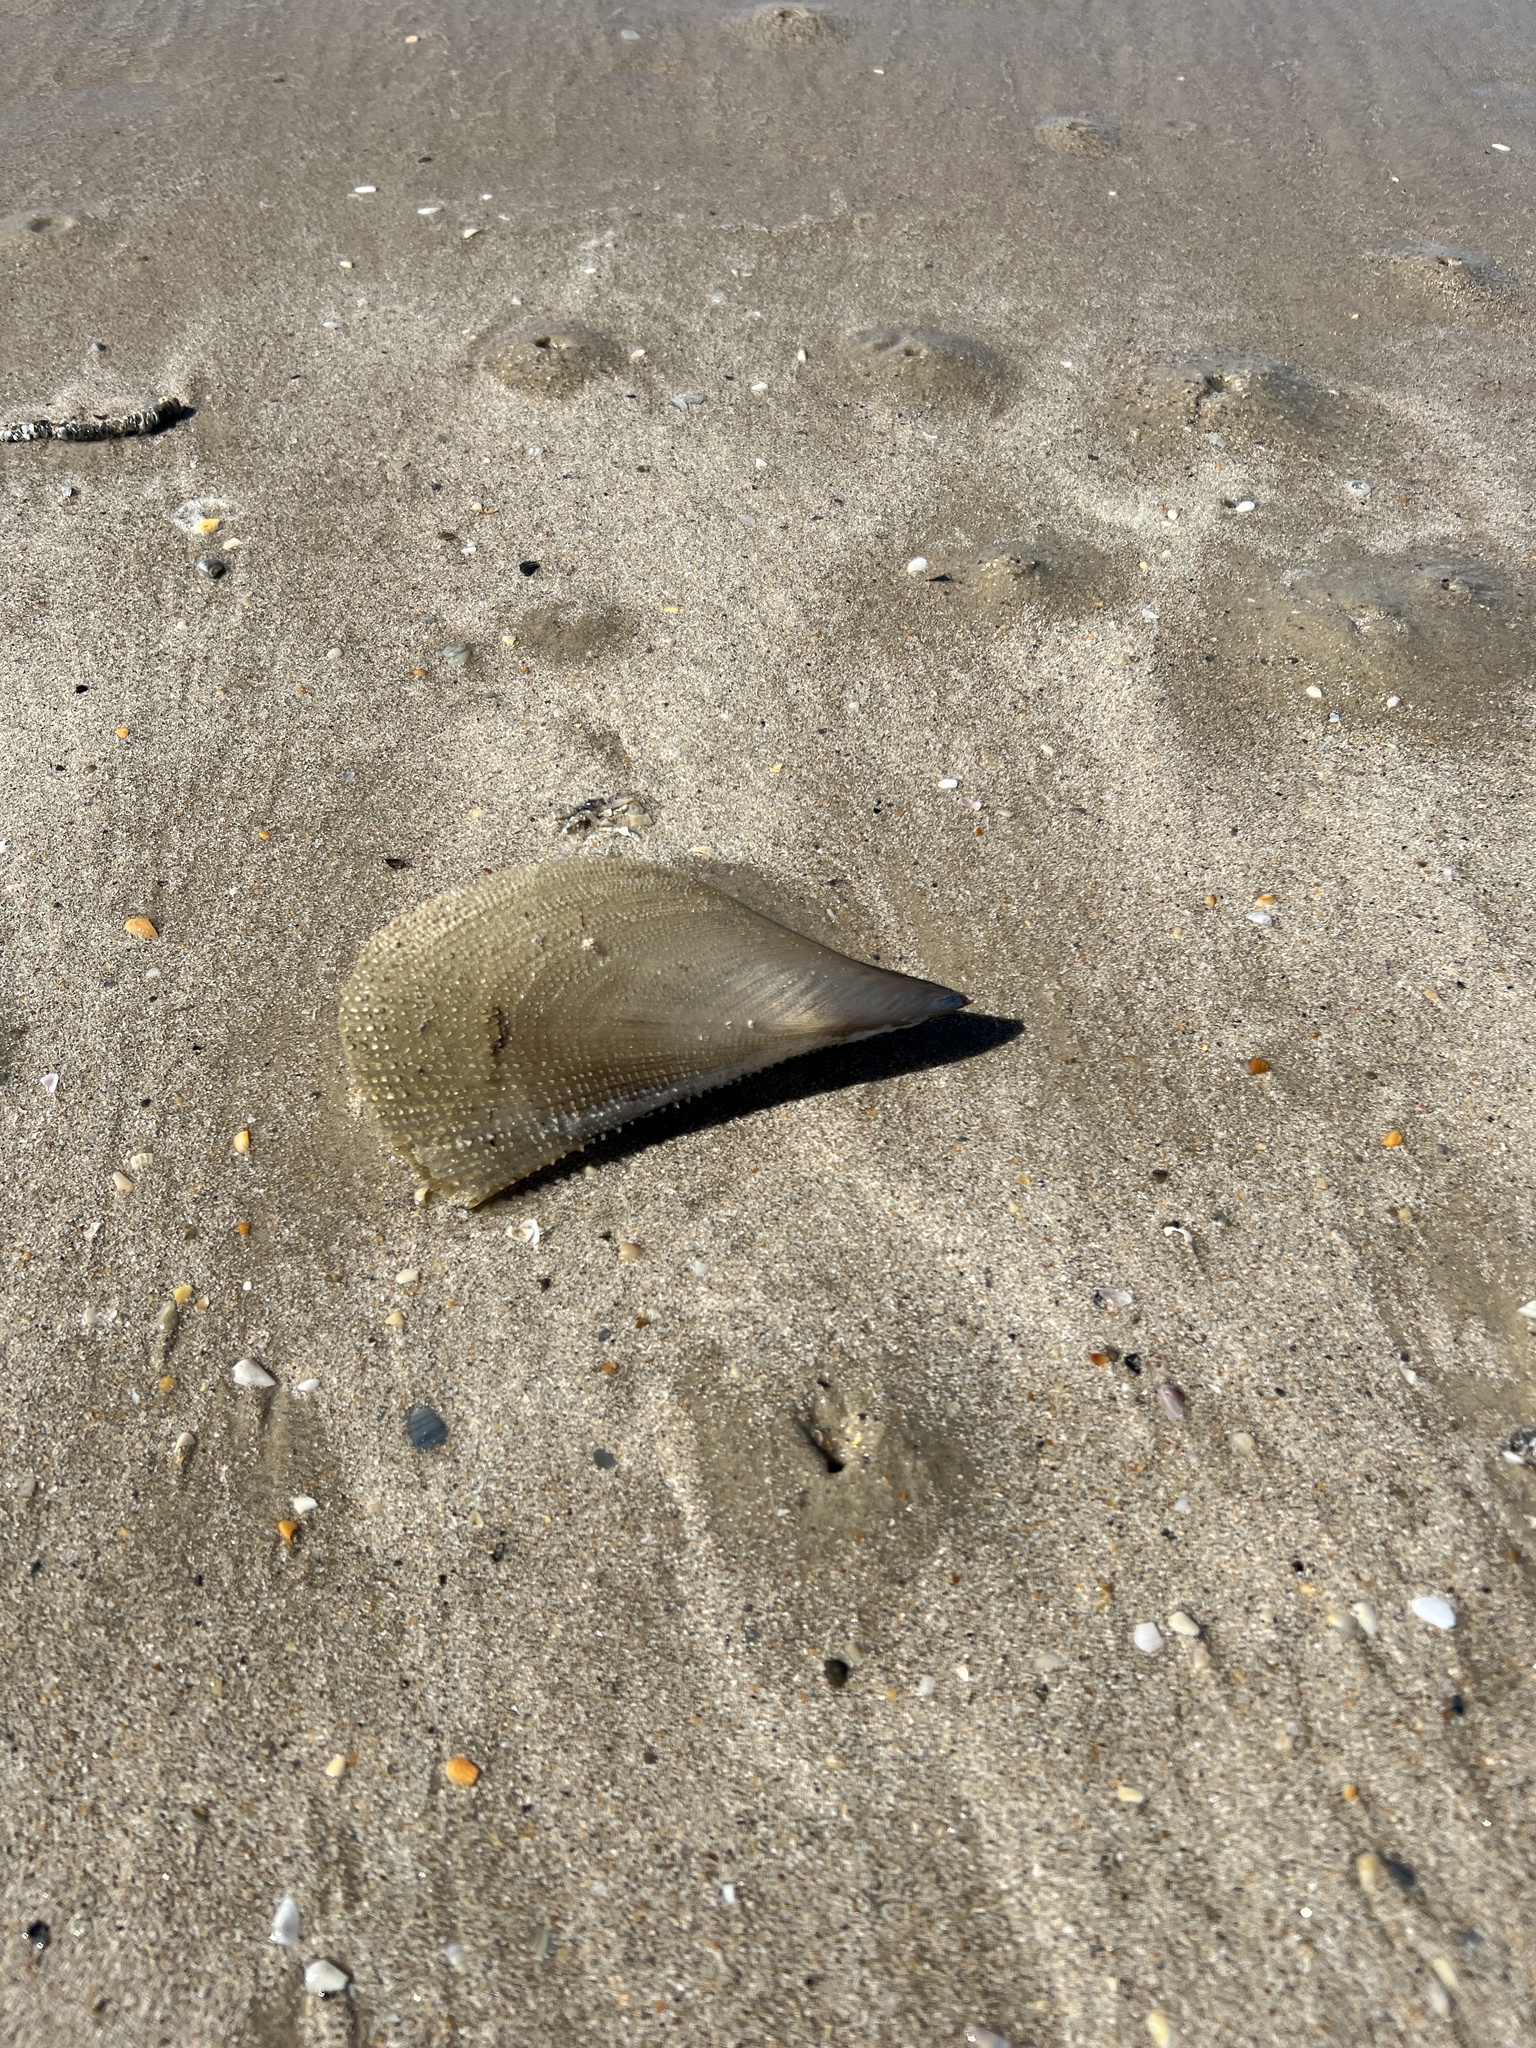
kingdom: Animalia
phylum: Mollusca
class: Bivalvia
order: Ostreida
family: Pinnidae
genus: Atrina
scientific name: Atrina serrata
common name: Saw-toothed penshell
